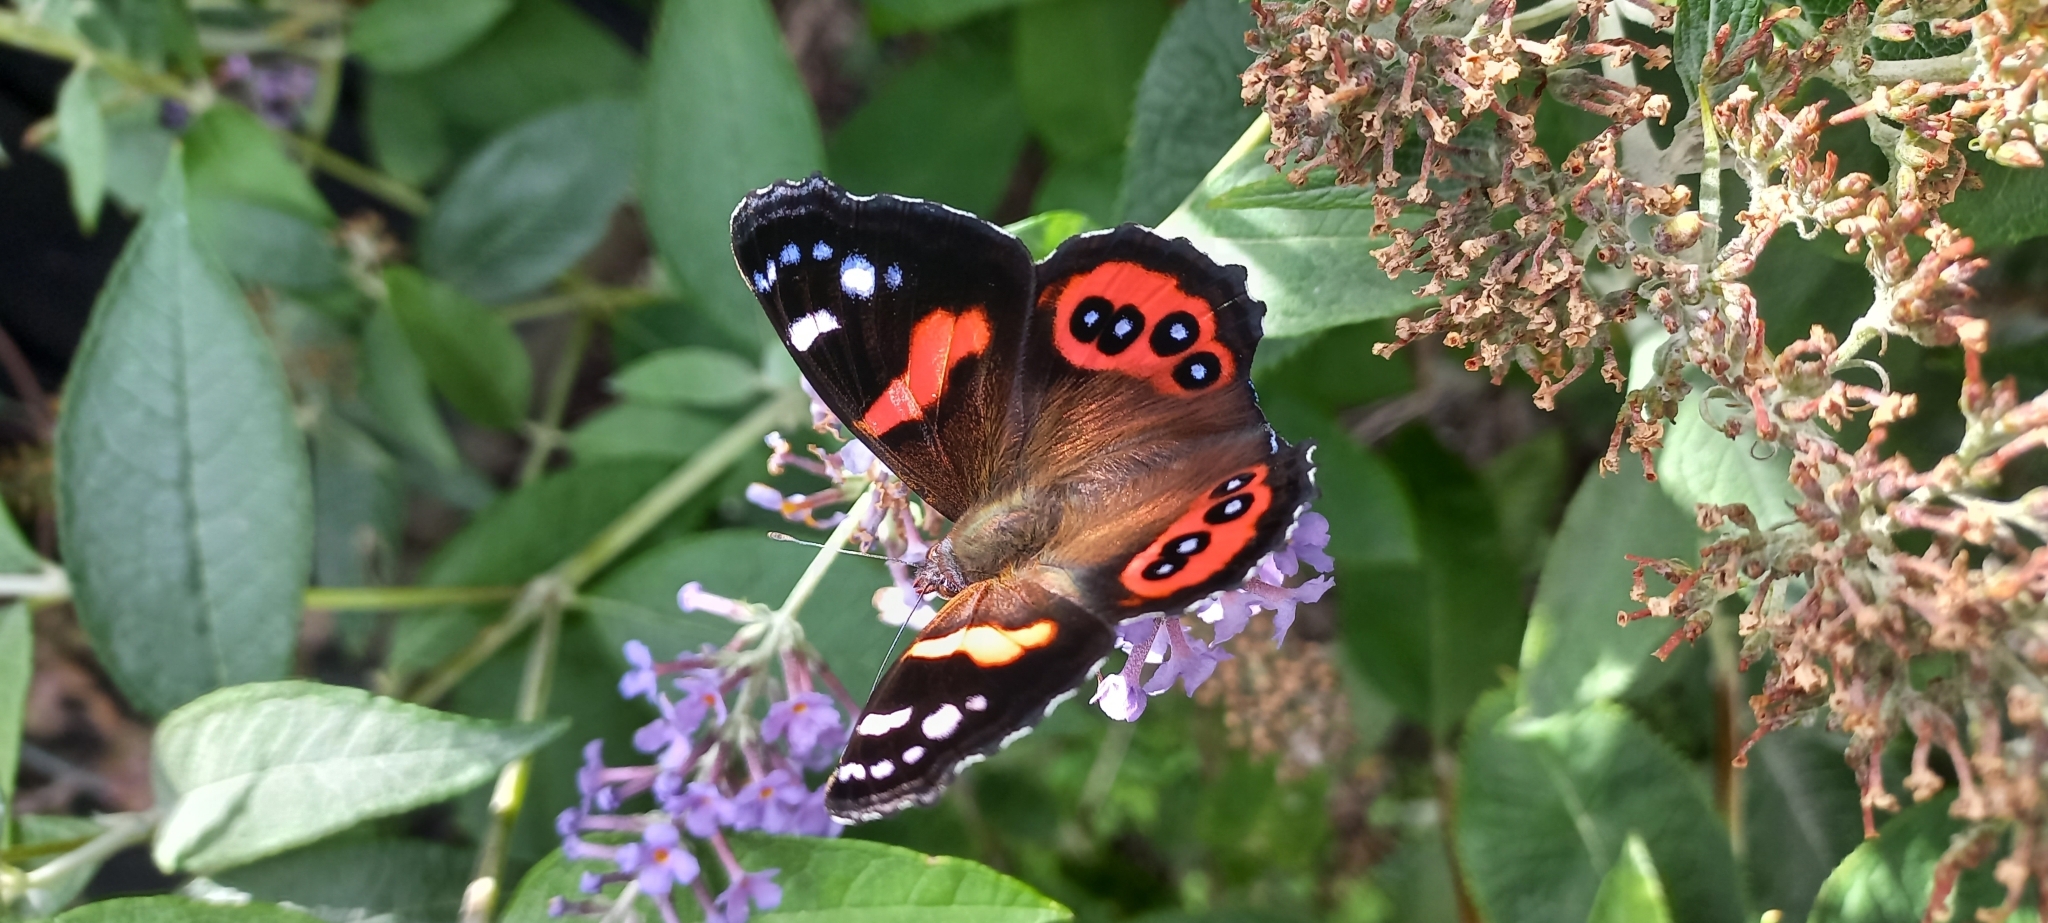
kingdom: Animalia
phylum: Arthropoda
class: Insecta
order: Lepidoptera
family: Nymphalidae
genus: Vanessa
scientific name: Vanessa gonerilla
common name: New zealand red admiral
